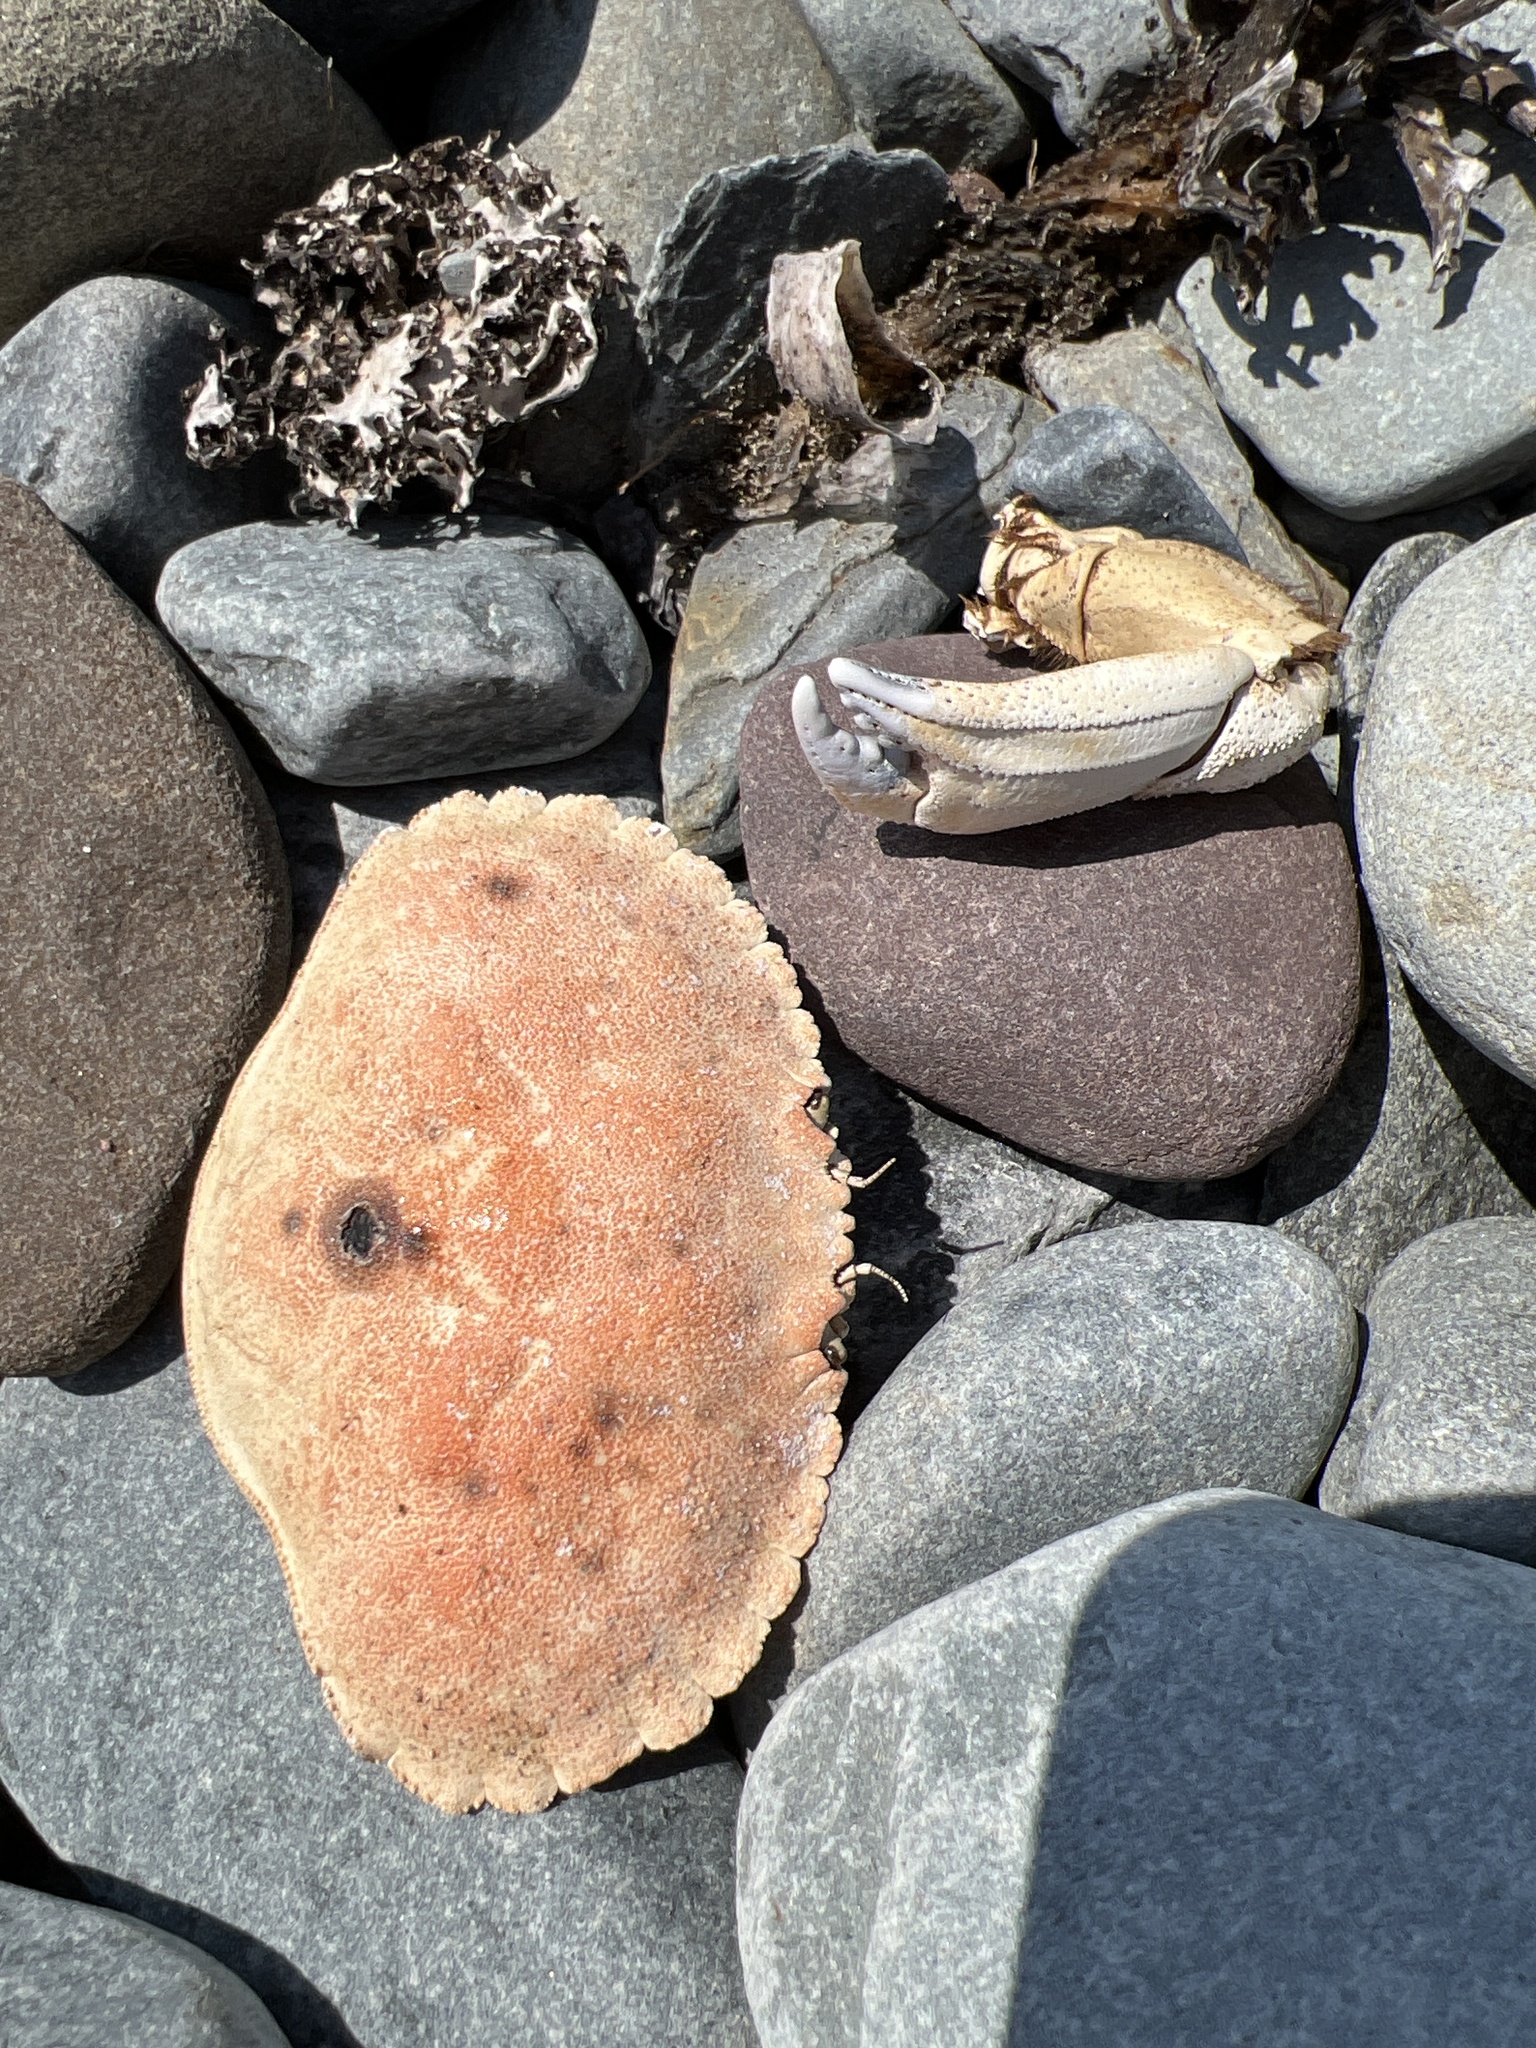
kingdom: Animalia
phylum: Arthropoda
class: Malacostraca
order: Decapoda
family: Cancridae
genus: Cancer
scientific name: Cancer borealis
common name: Jonah crab
